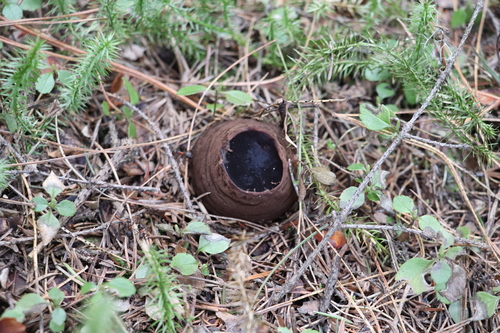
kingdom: Fungi
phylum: Ascomycota
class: Pezizomycetes
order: Pezizales
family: Sarcosomataceae
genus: Sarcosoma
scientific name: Sarcosoma globosum
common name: Charred-pancake cup
